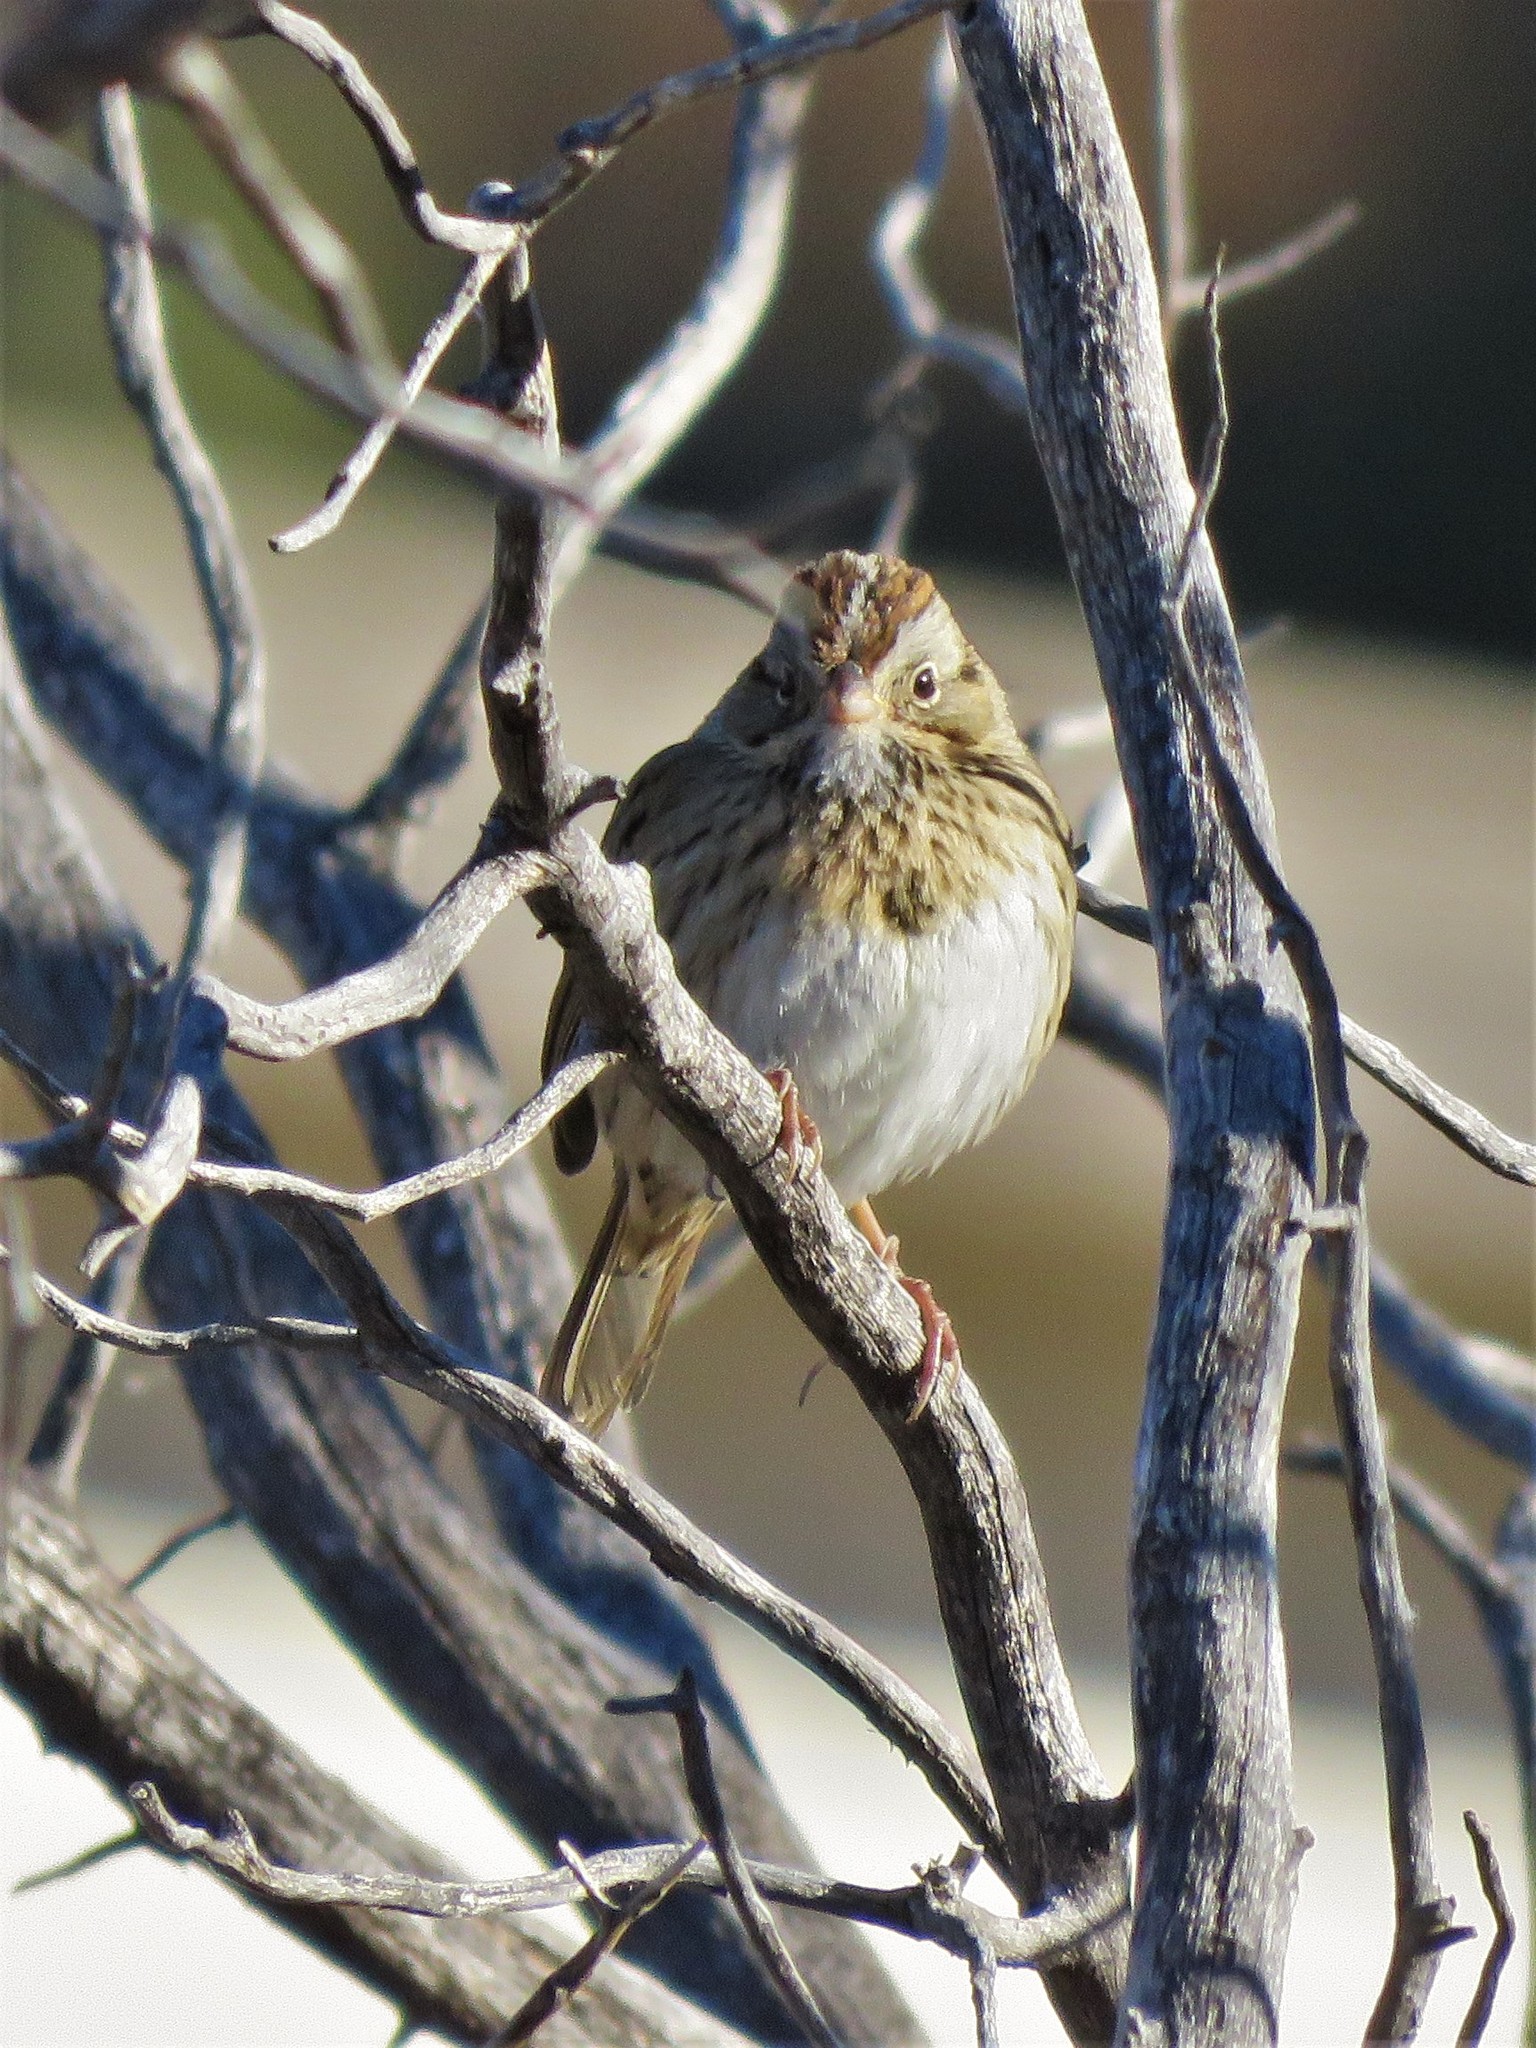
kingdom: Animalia
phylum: Chordata
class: Aves
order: Passeriformes
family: Passerellidae
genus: Melospiza
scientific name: Melospiza lincolnii
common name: Lincoln's sparrow
